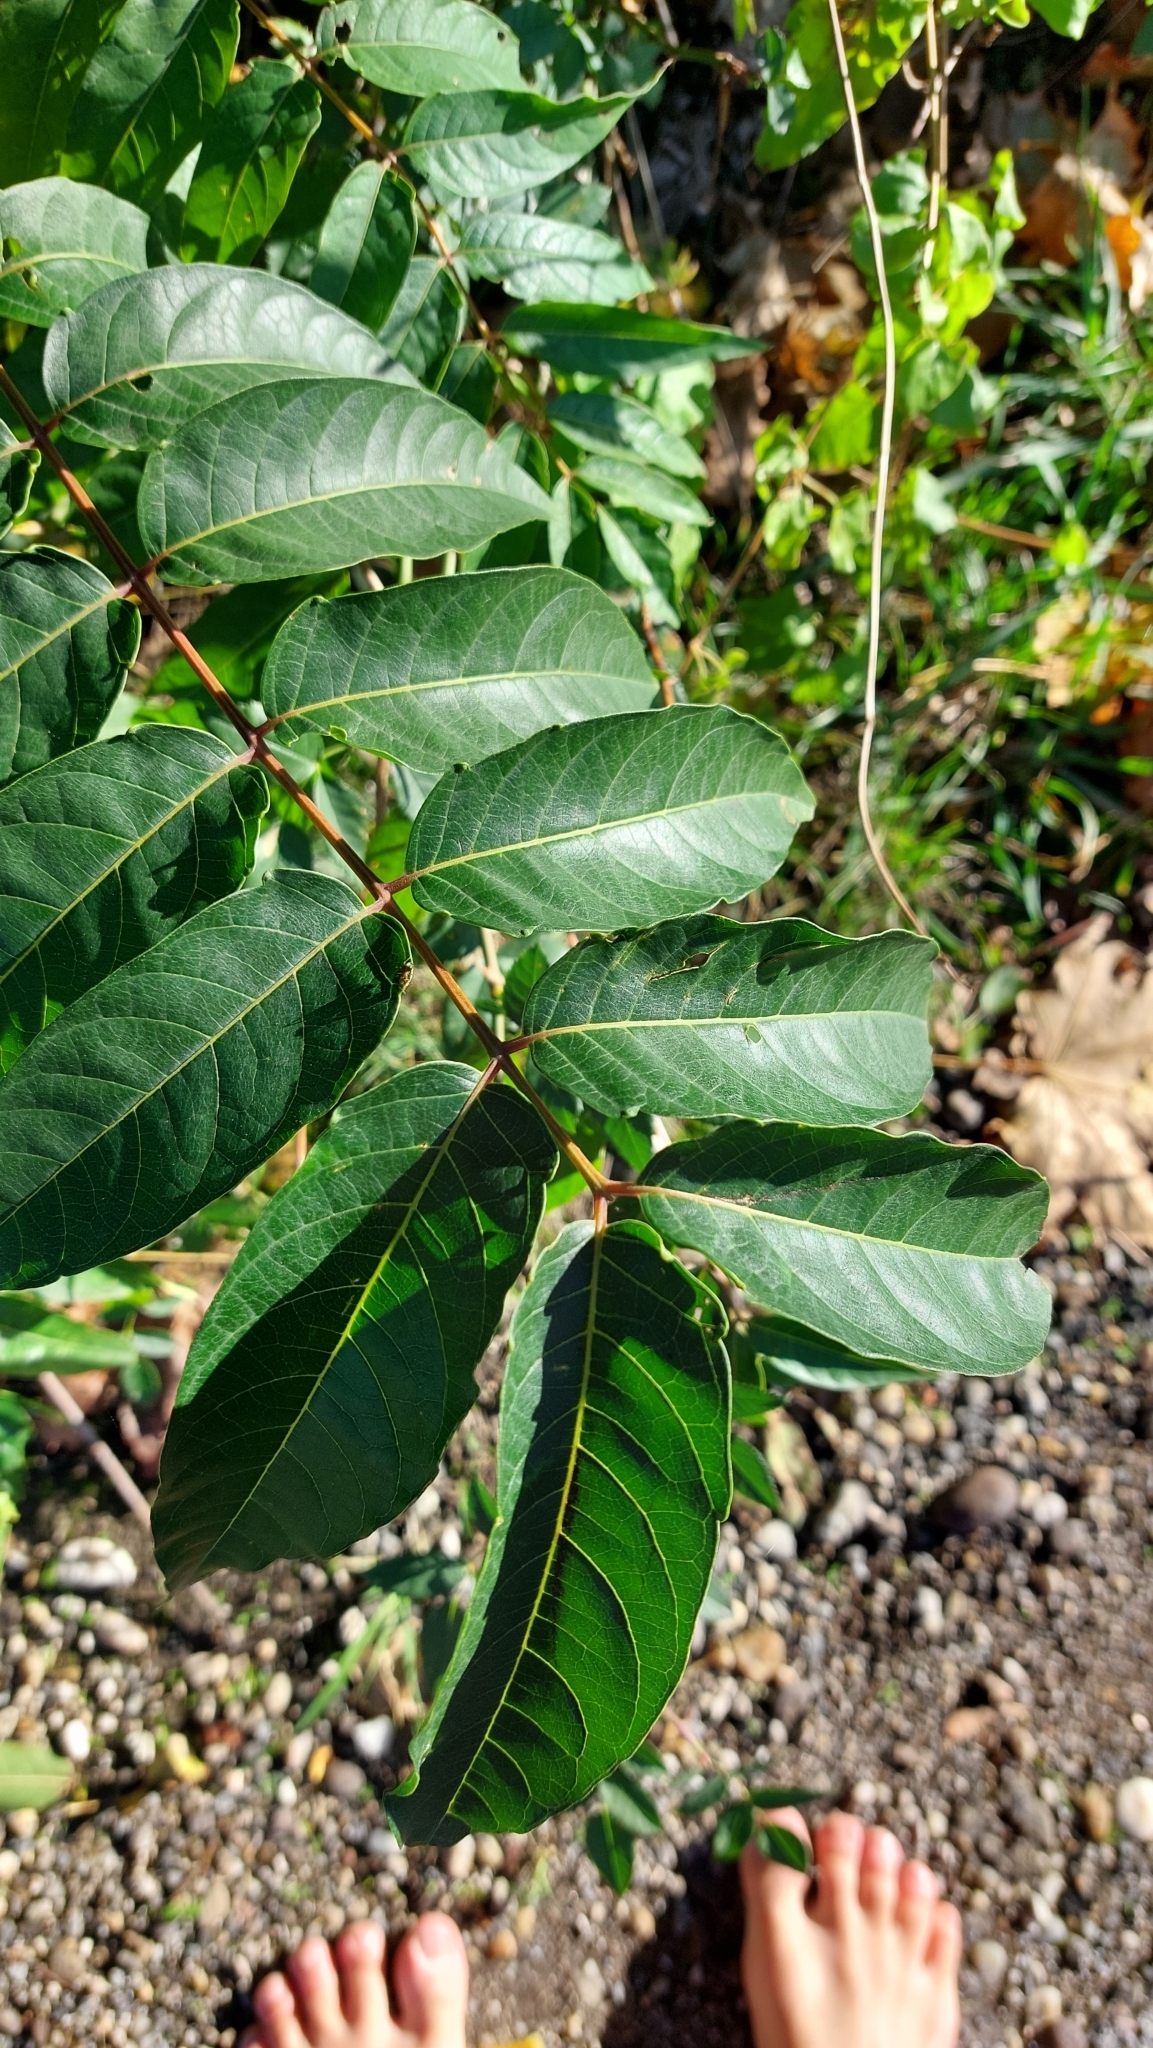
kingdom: Plantae
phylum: Tracheophyta
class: Magnoliopsida
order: Sapindales
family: Simaroubaceae
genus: Ailanthus
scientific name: Ailanthus altissima
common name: Tree-of-heaven
